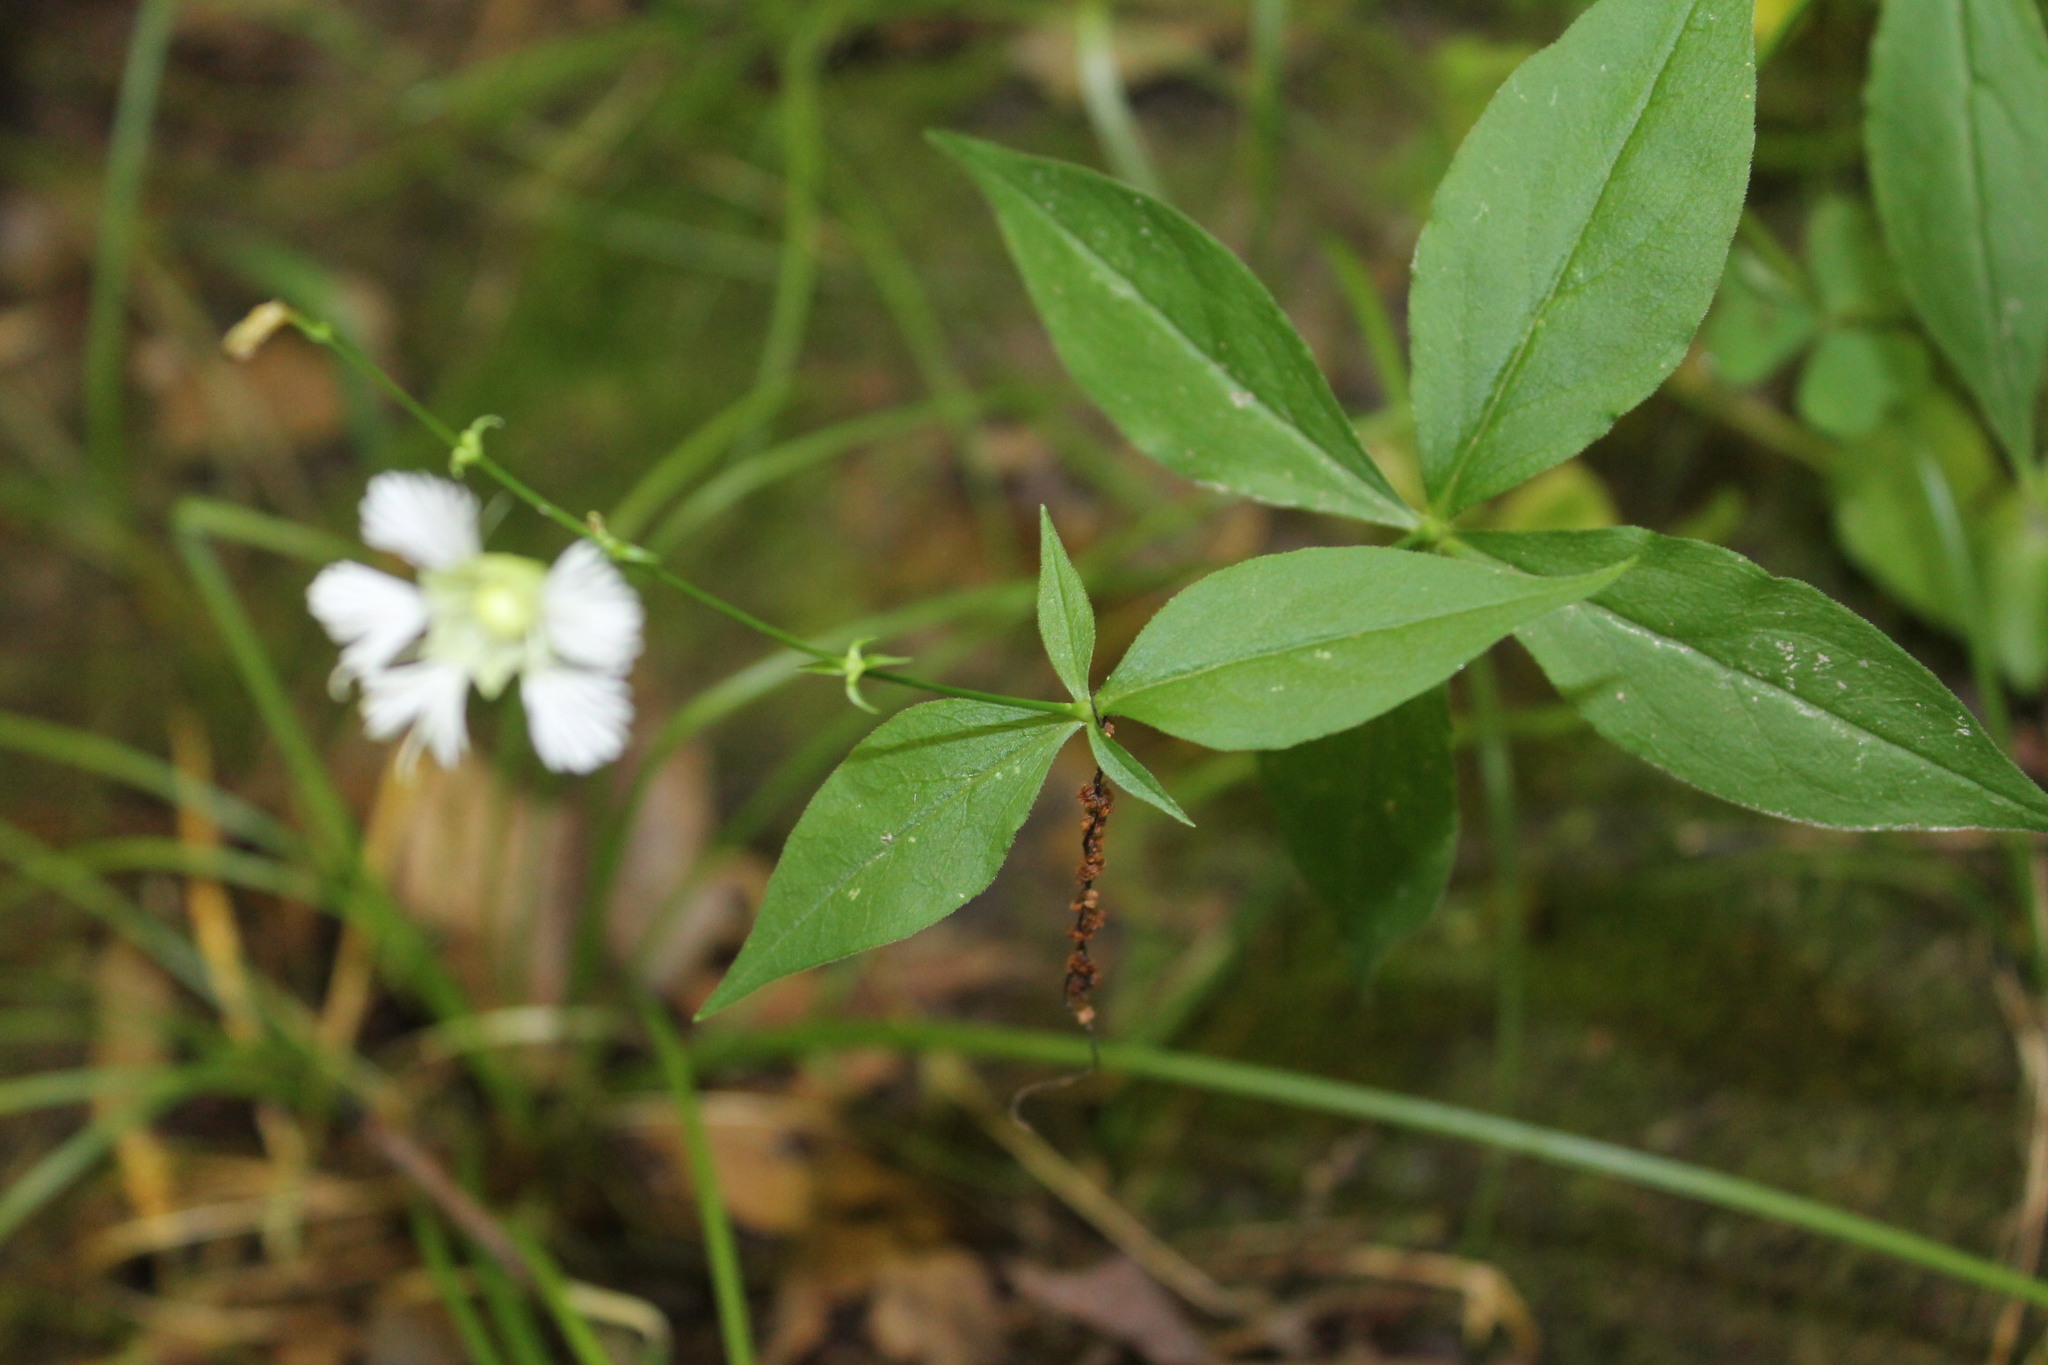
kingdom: Plantae
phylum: Tracheophyta
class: Magnoliopsida
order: Caryophyllales
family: Caryophyllaceae
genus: Silene
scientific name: Silene stellata
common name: Starry campion
